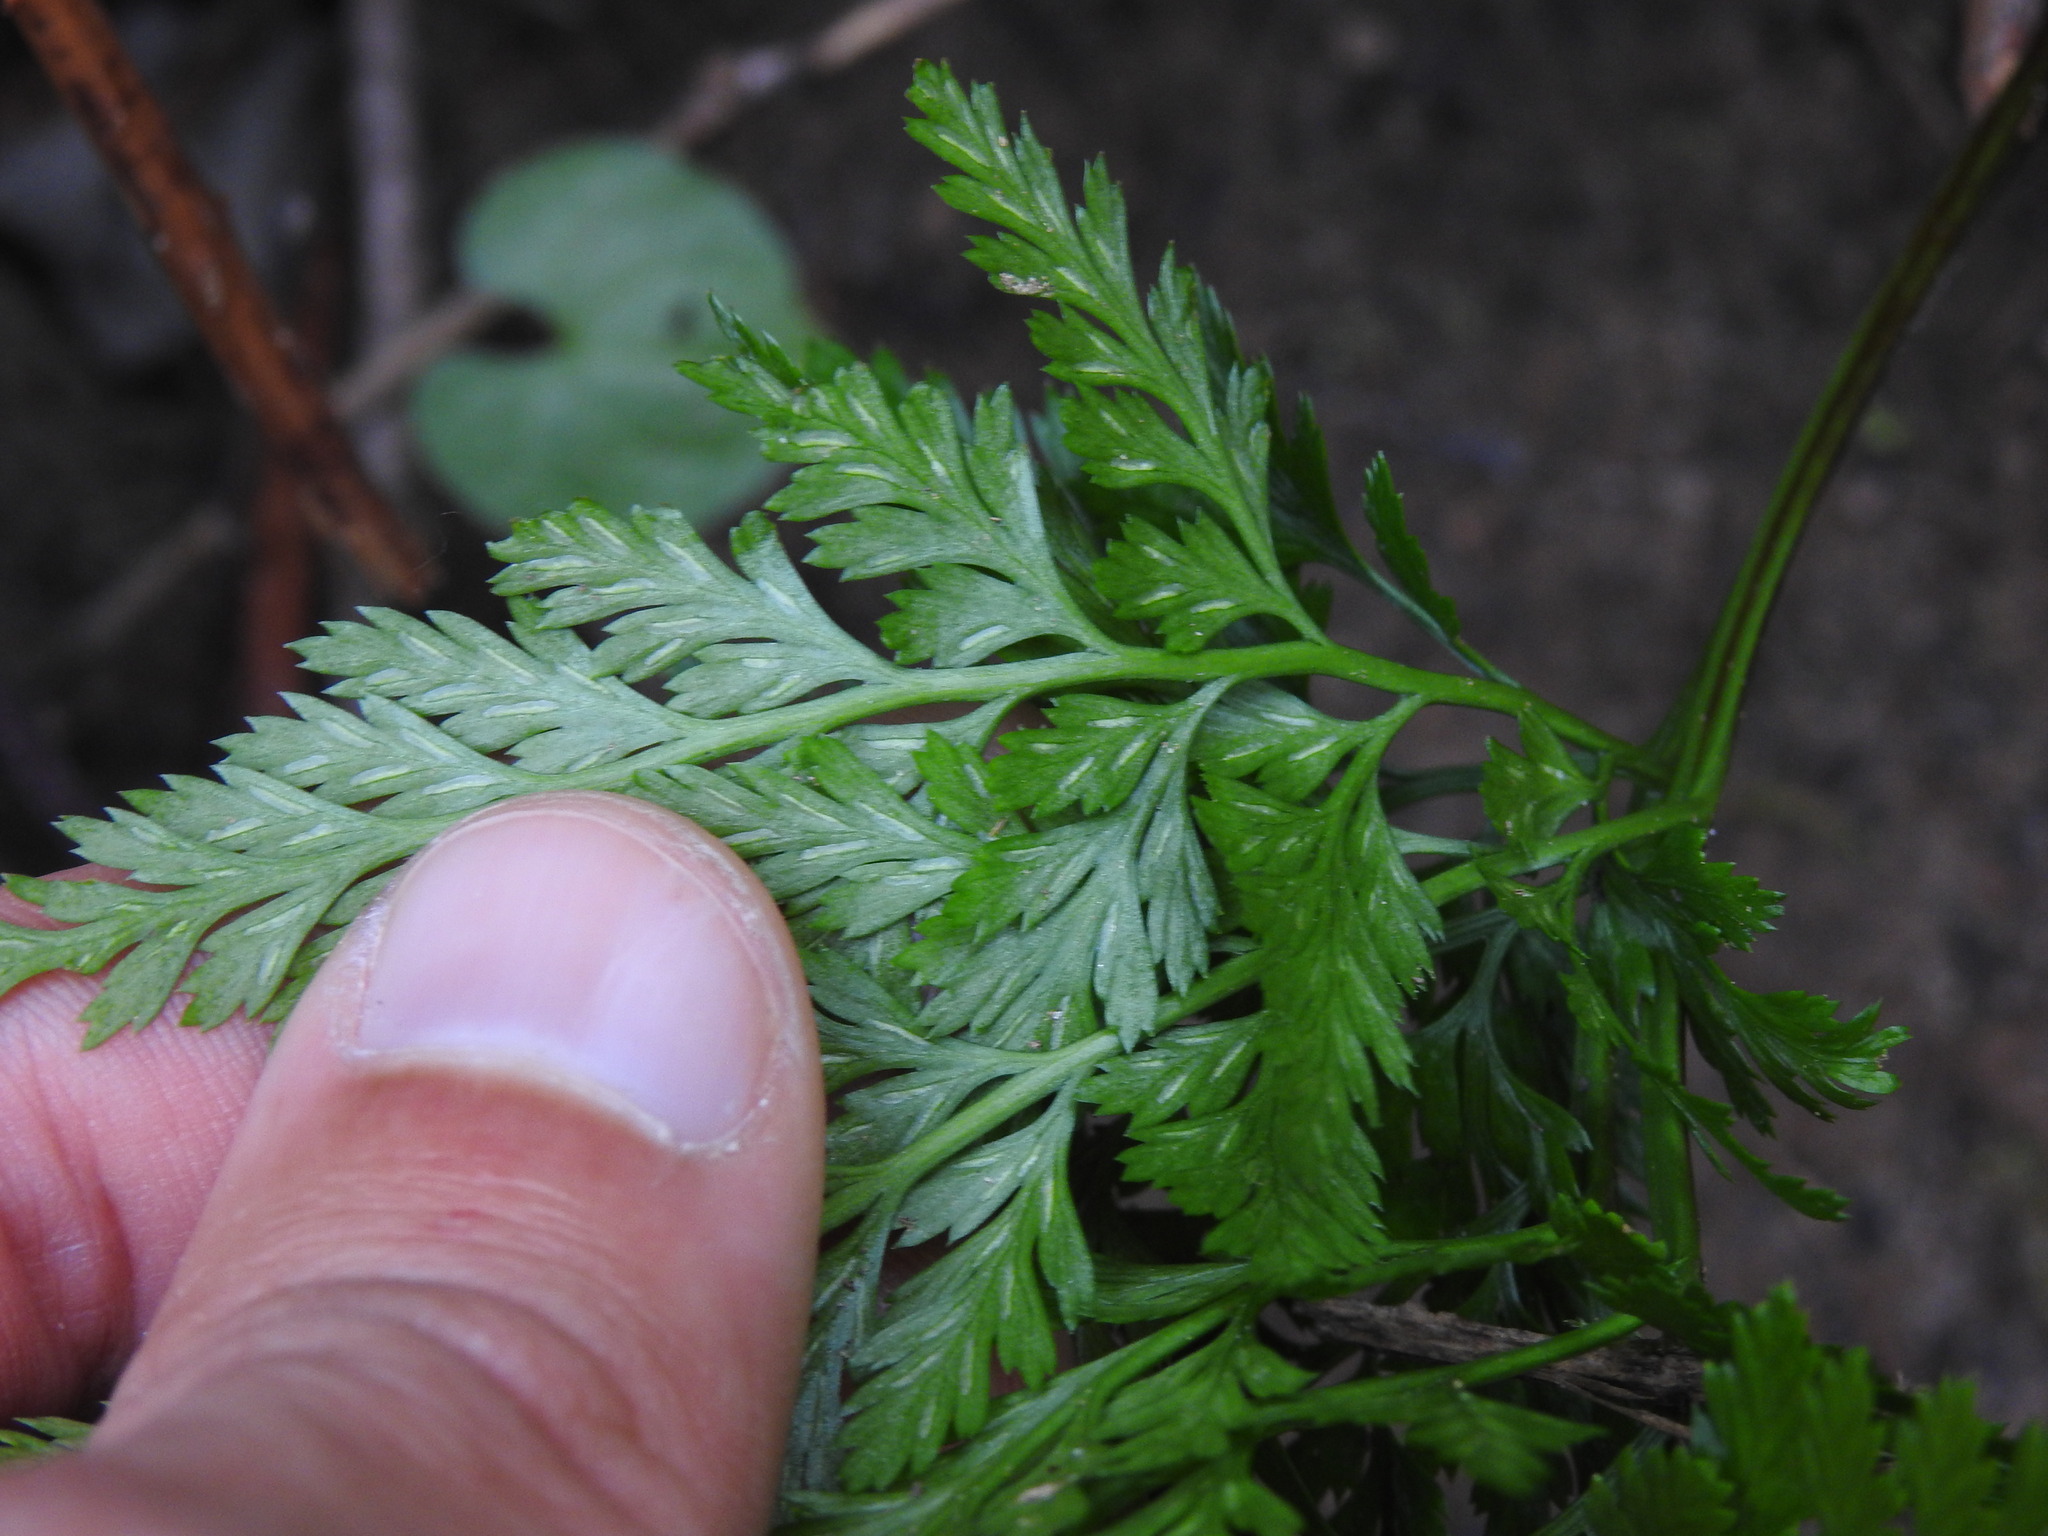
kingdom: Plantae
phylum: Tracheophyta
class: Polypodiopsida
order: Polypodiales
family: Aspleniaceae
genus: Asplenium
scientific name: Asplenium onopteris
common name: Irish spleenwort
